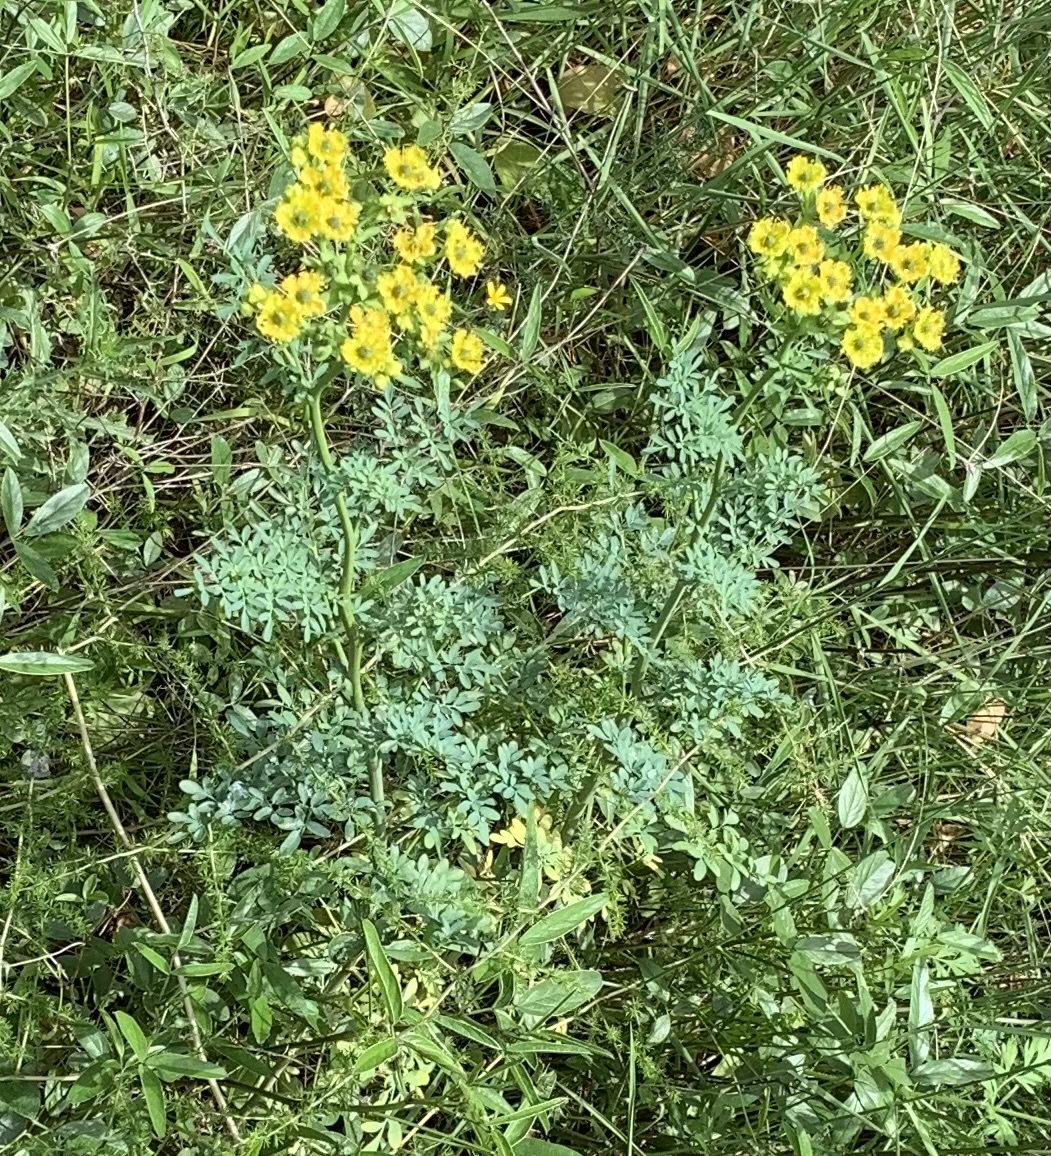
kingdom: Plantae
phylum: Tracheophyta
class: Magnoliopsida
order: Sapindales
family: Rutaceae
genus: Ruta
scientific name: Ruta chalepensis
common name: Fringed rue
